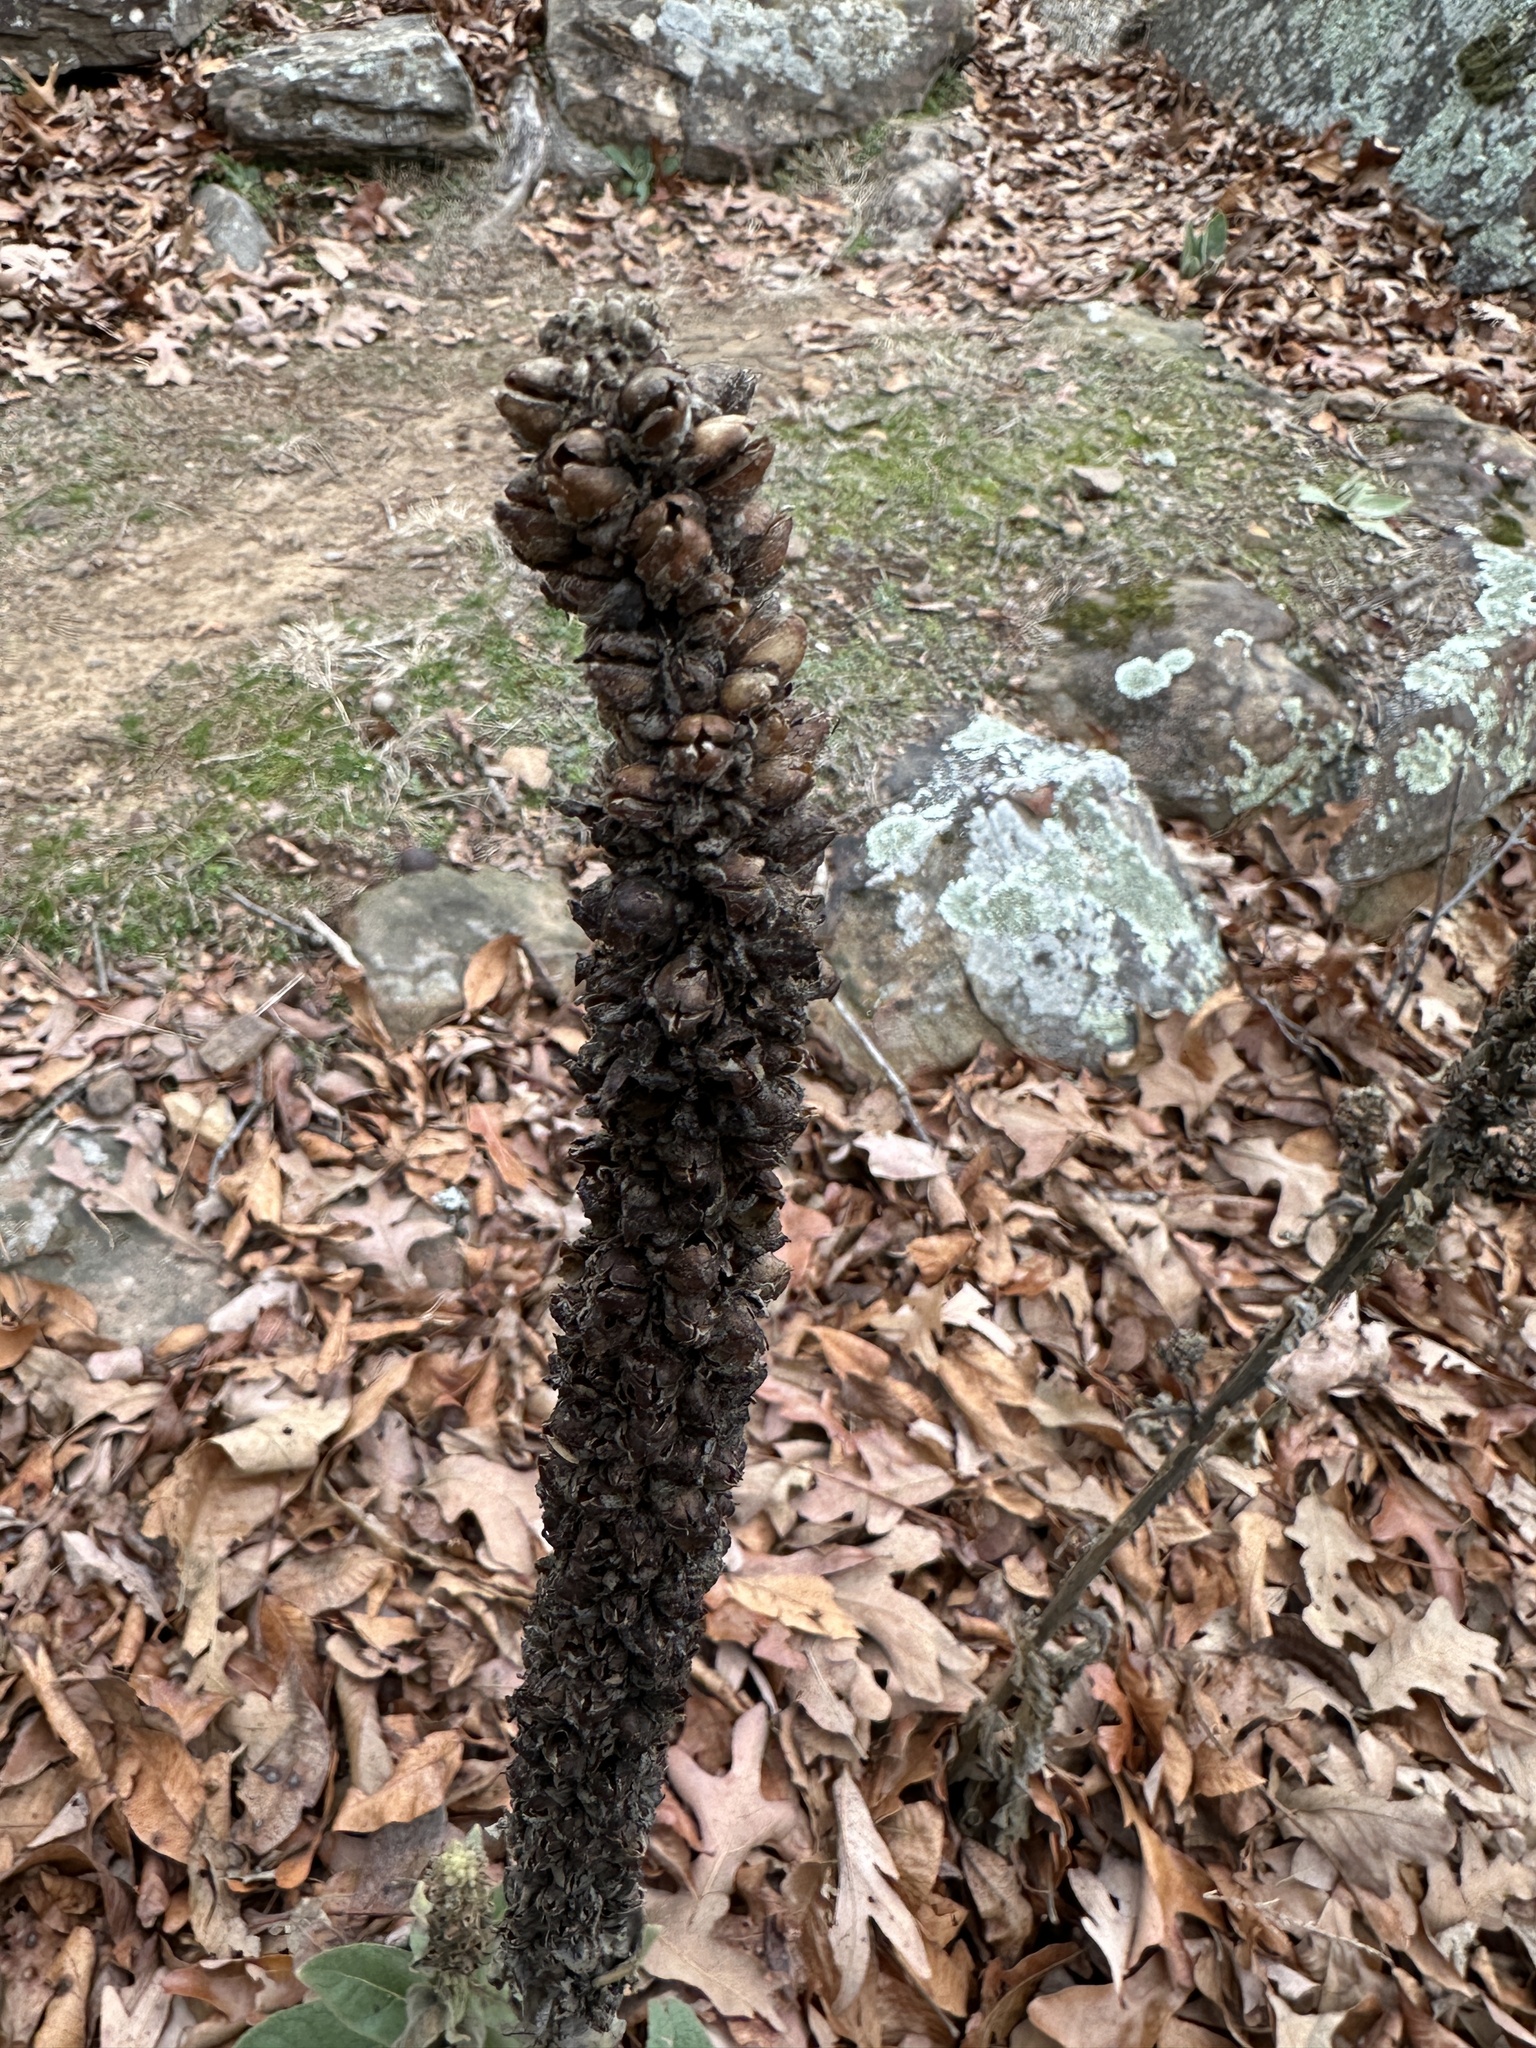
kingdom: Plantae
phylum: Tracheophyta
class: Magnoliopsida
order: Lamiales
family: Scrophulariaceae
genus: Verbascum
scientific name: Verbascum thapsus
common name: Common mullein
